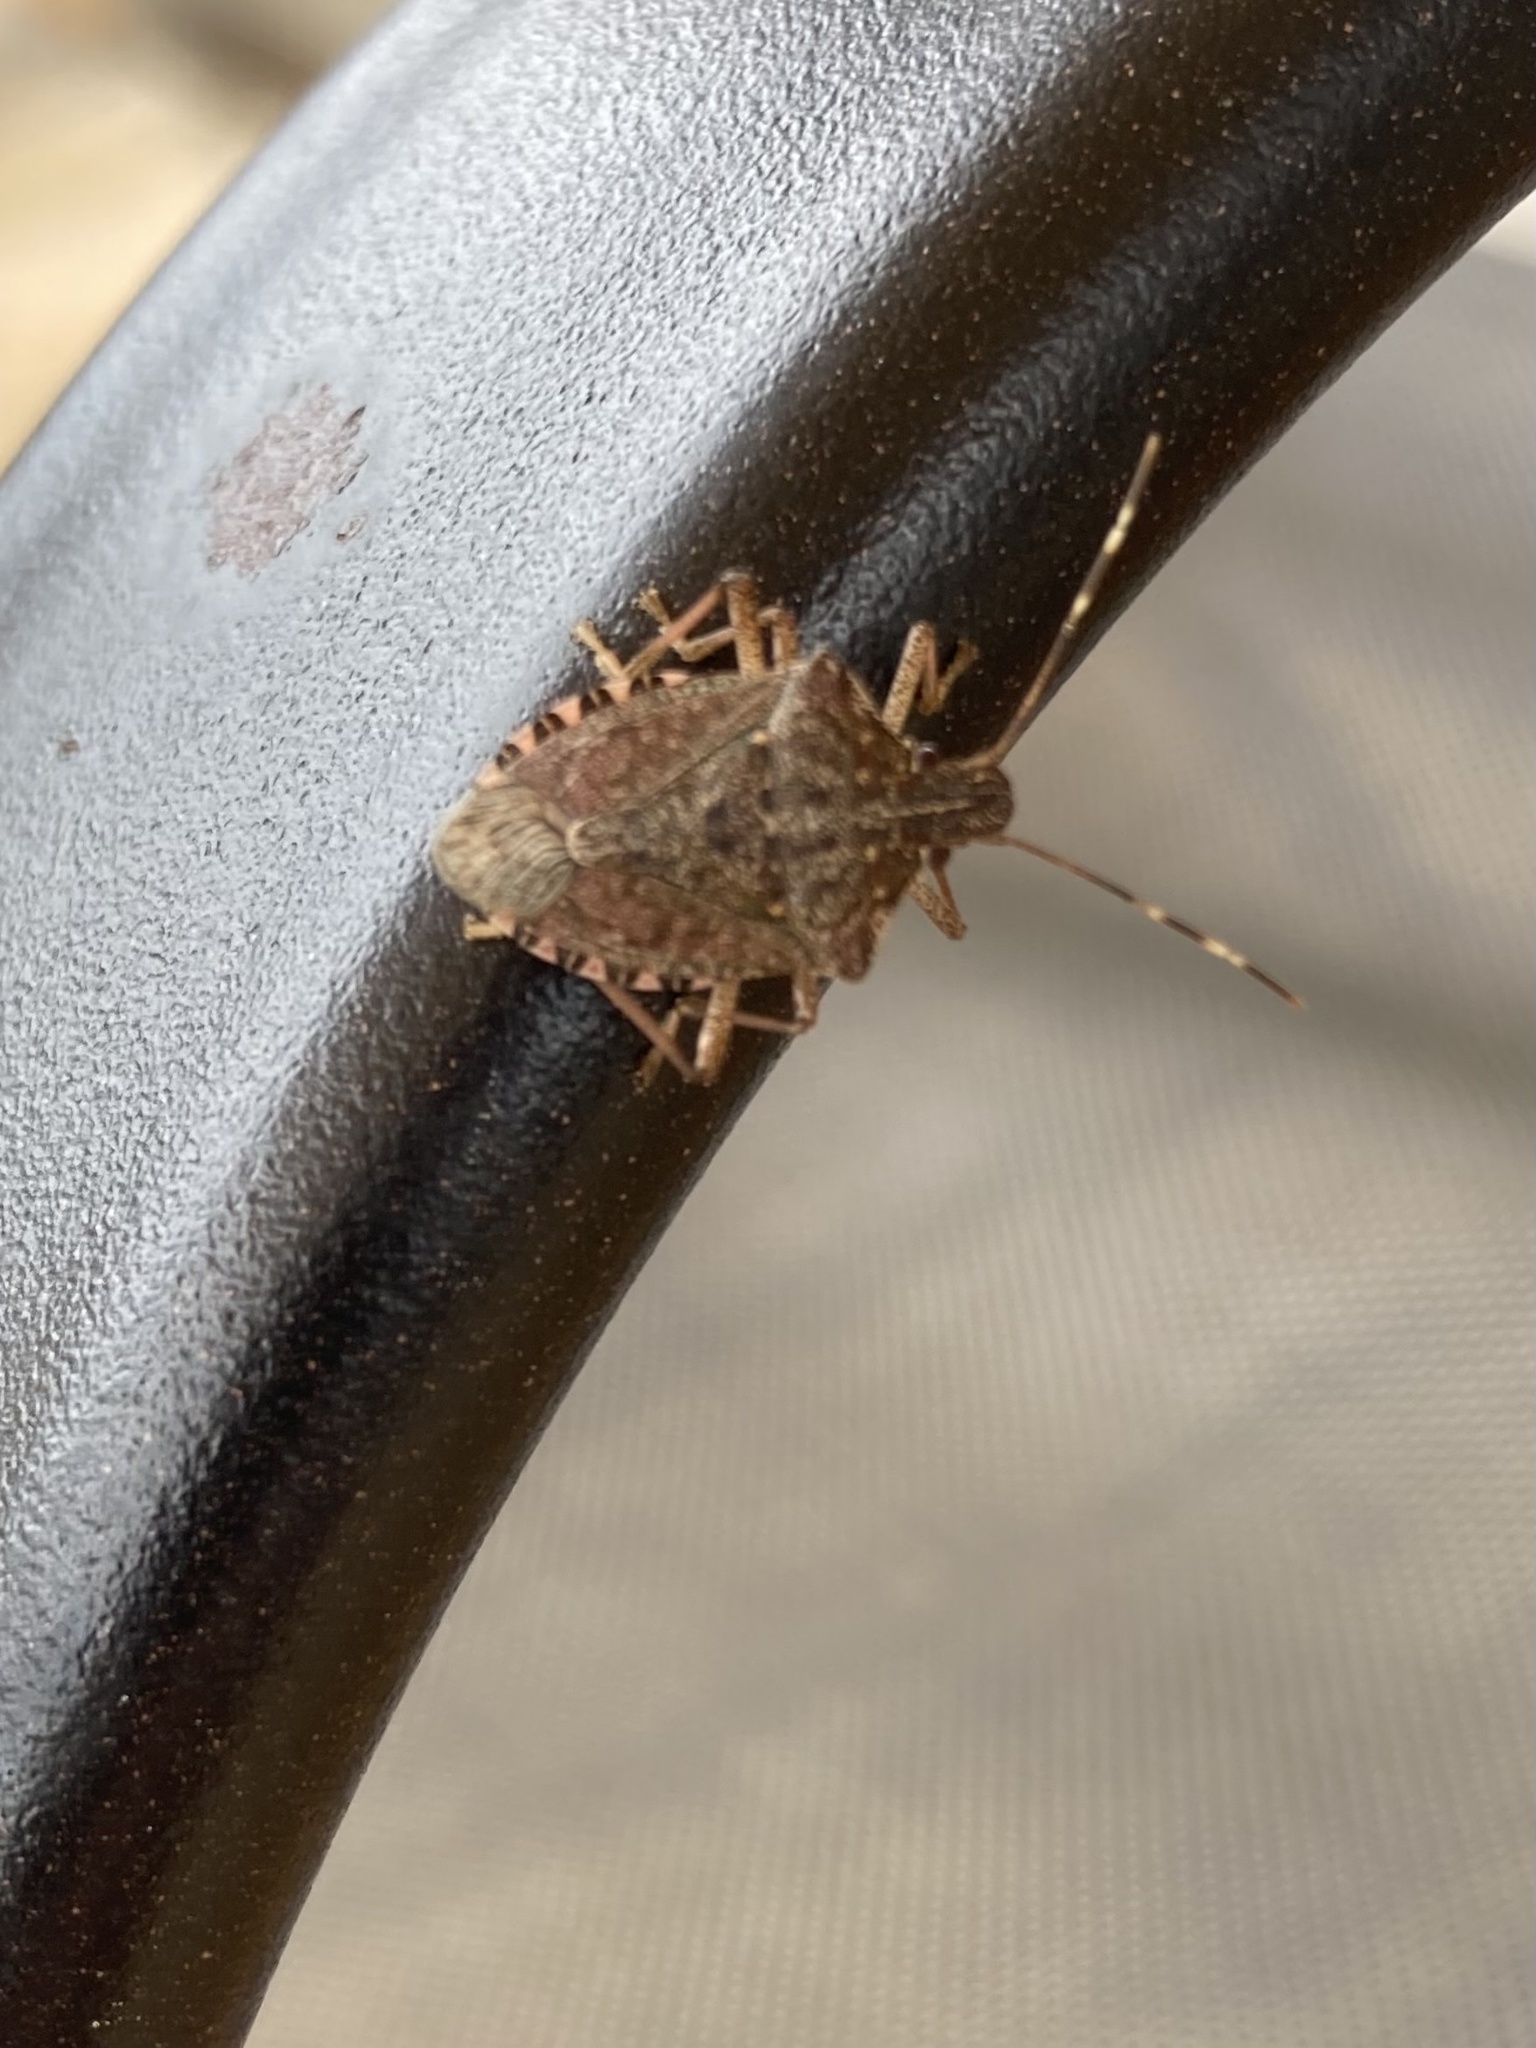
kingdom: Animalia
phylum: Arthropoda
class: Insecta
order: Hemiptera
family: Pentatomidae
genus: Halyomorpha
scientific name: Halyomorpha halys
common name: Brown marmorated stink bug
